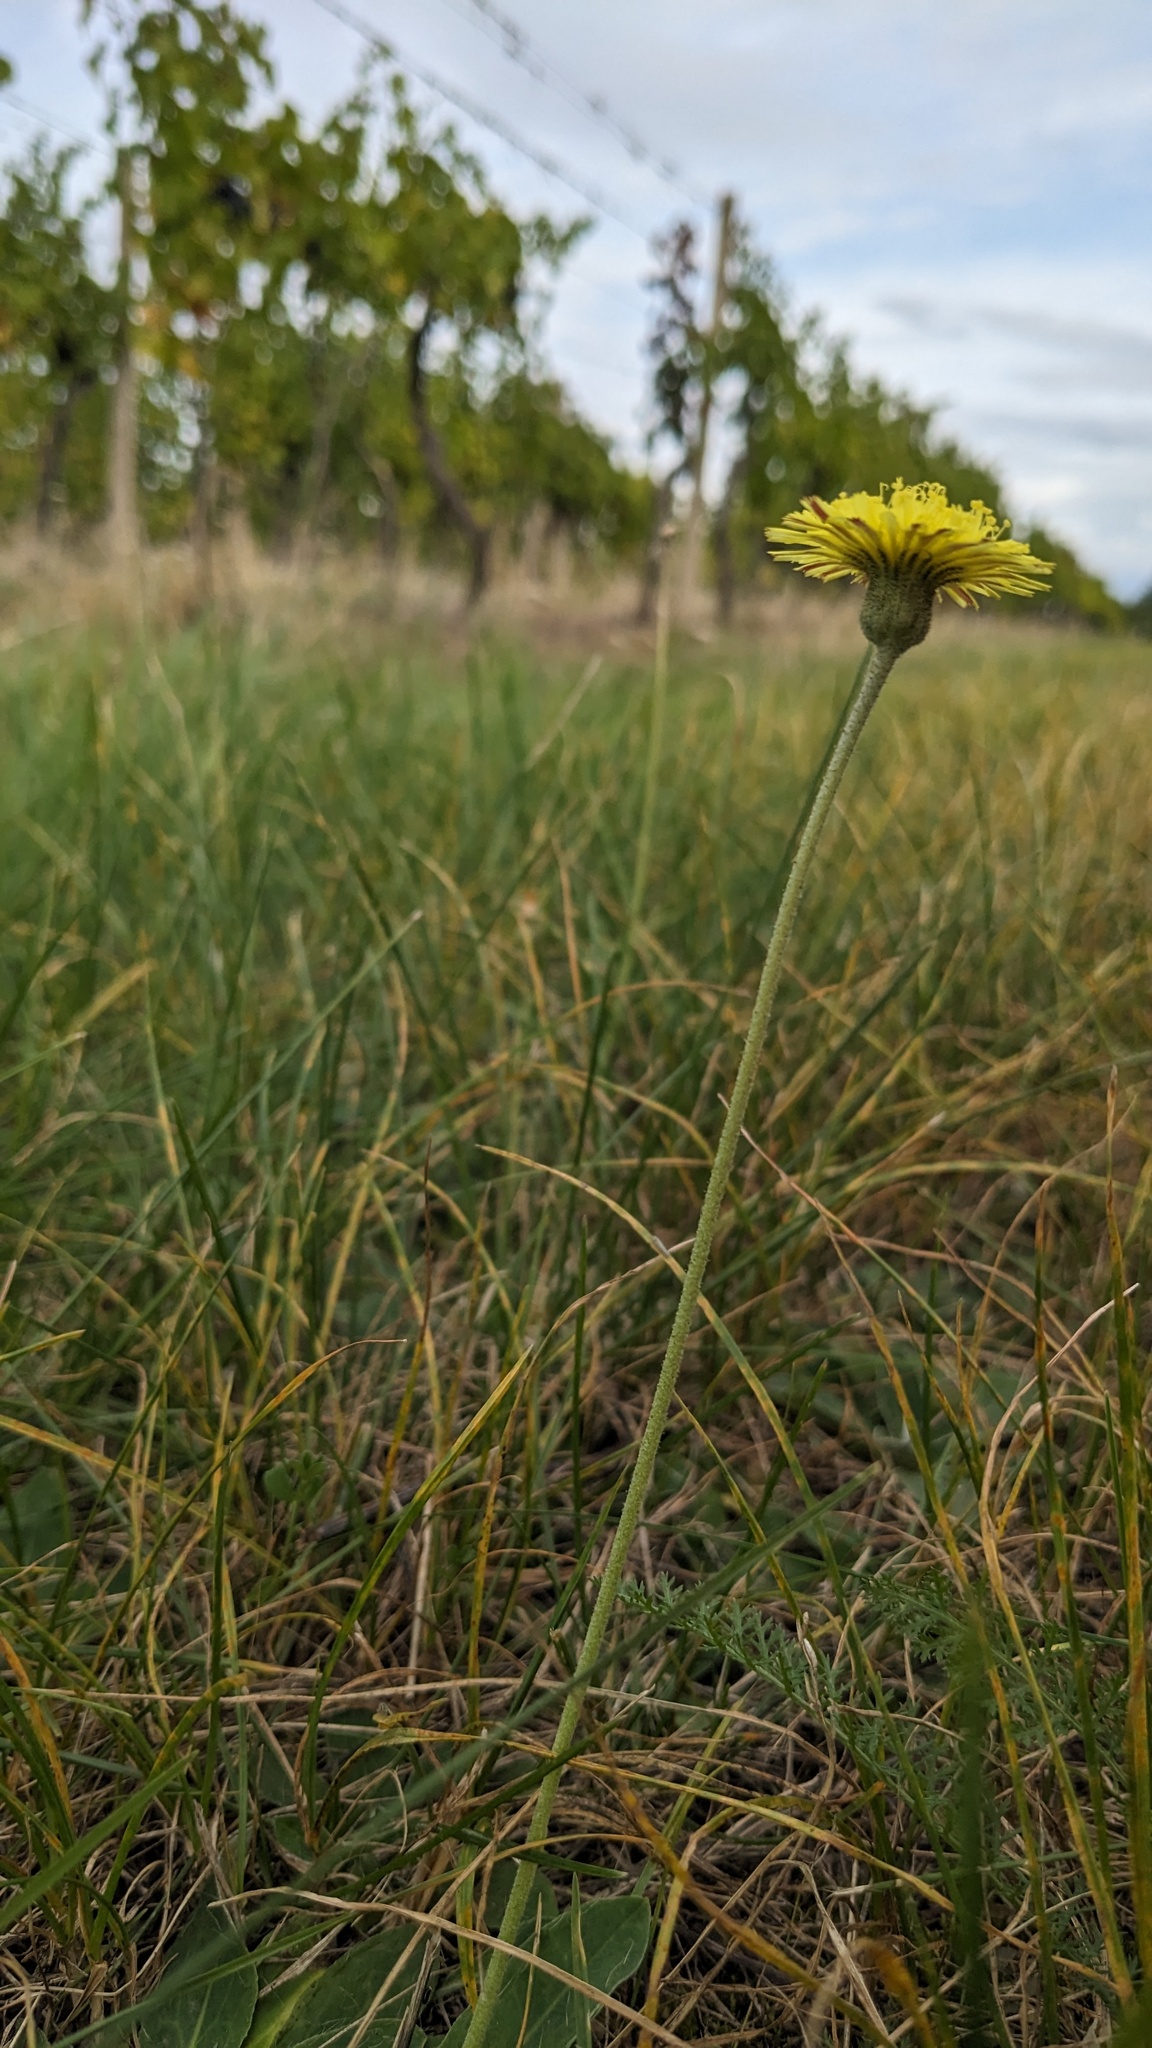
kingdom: Plantae
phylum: Tracheophyta
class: Magnoliopsida
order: Asterales
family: Asteraceae
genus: Pilosella
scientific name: Pilosella officinarum
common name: Mouse-ear hawkweed
